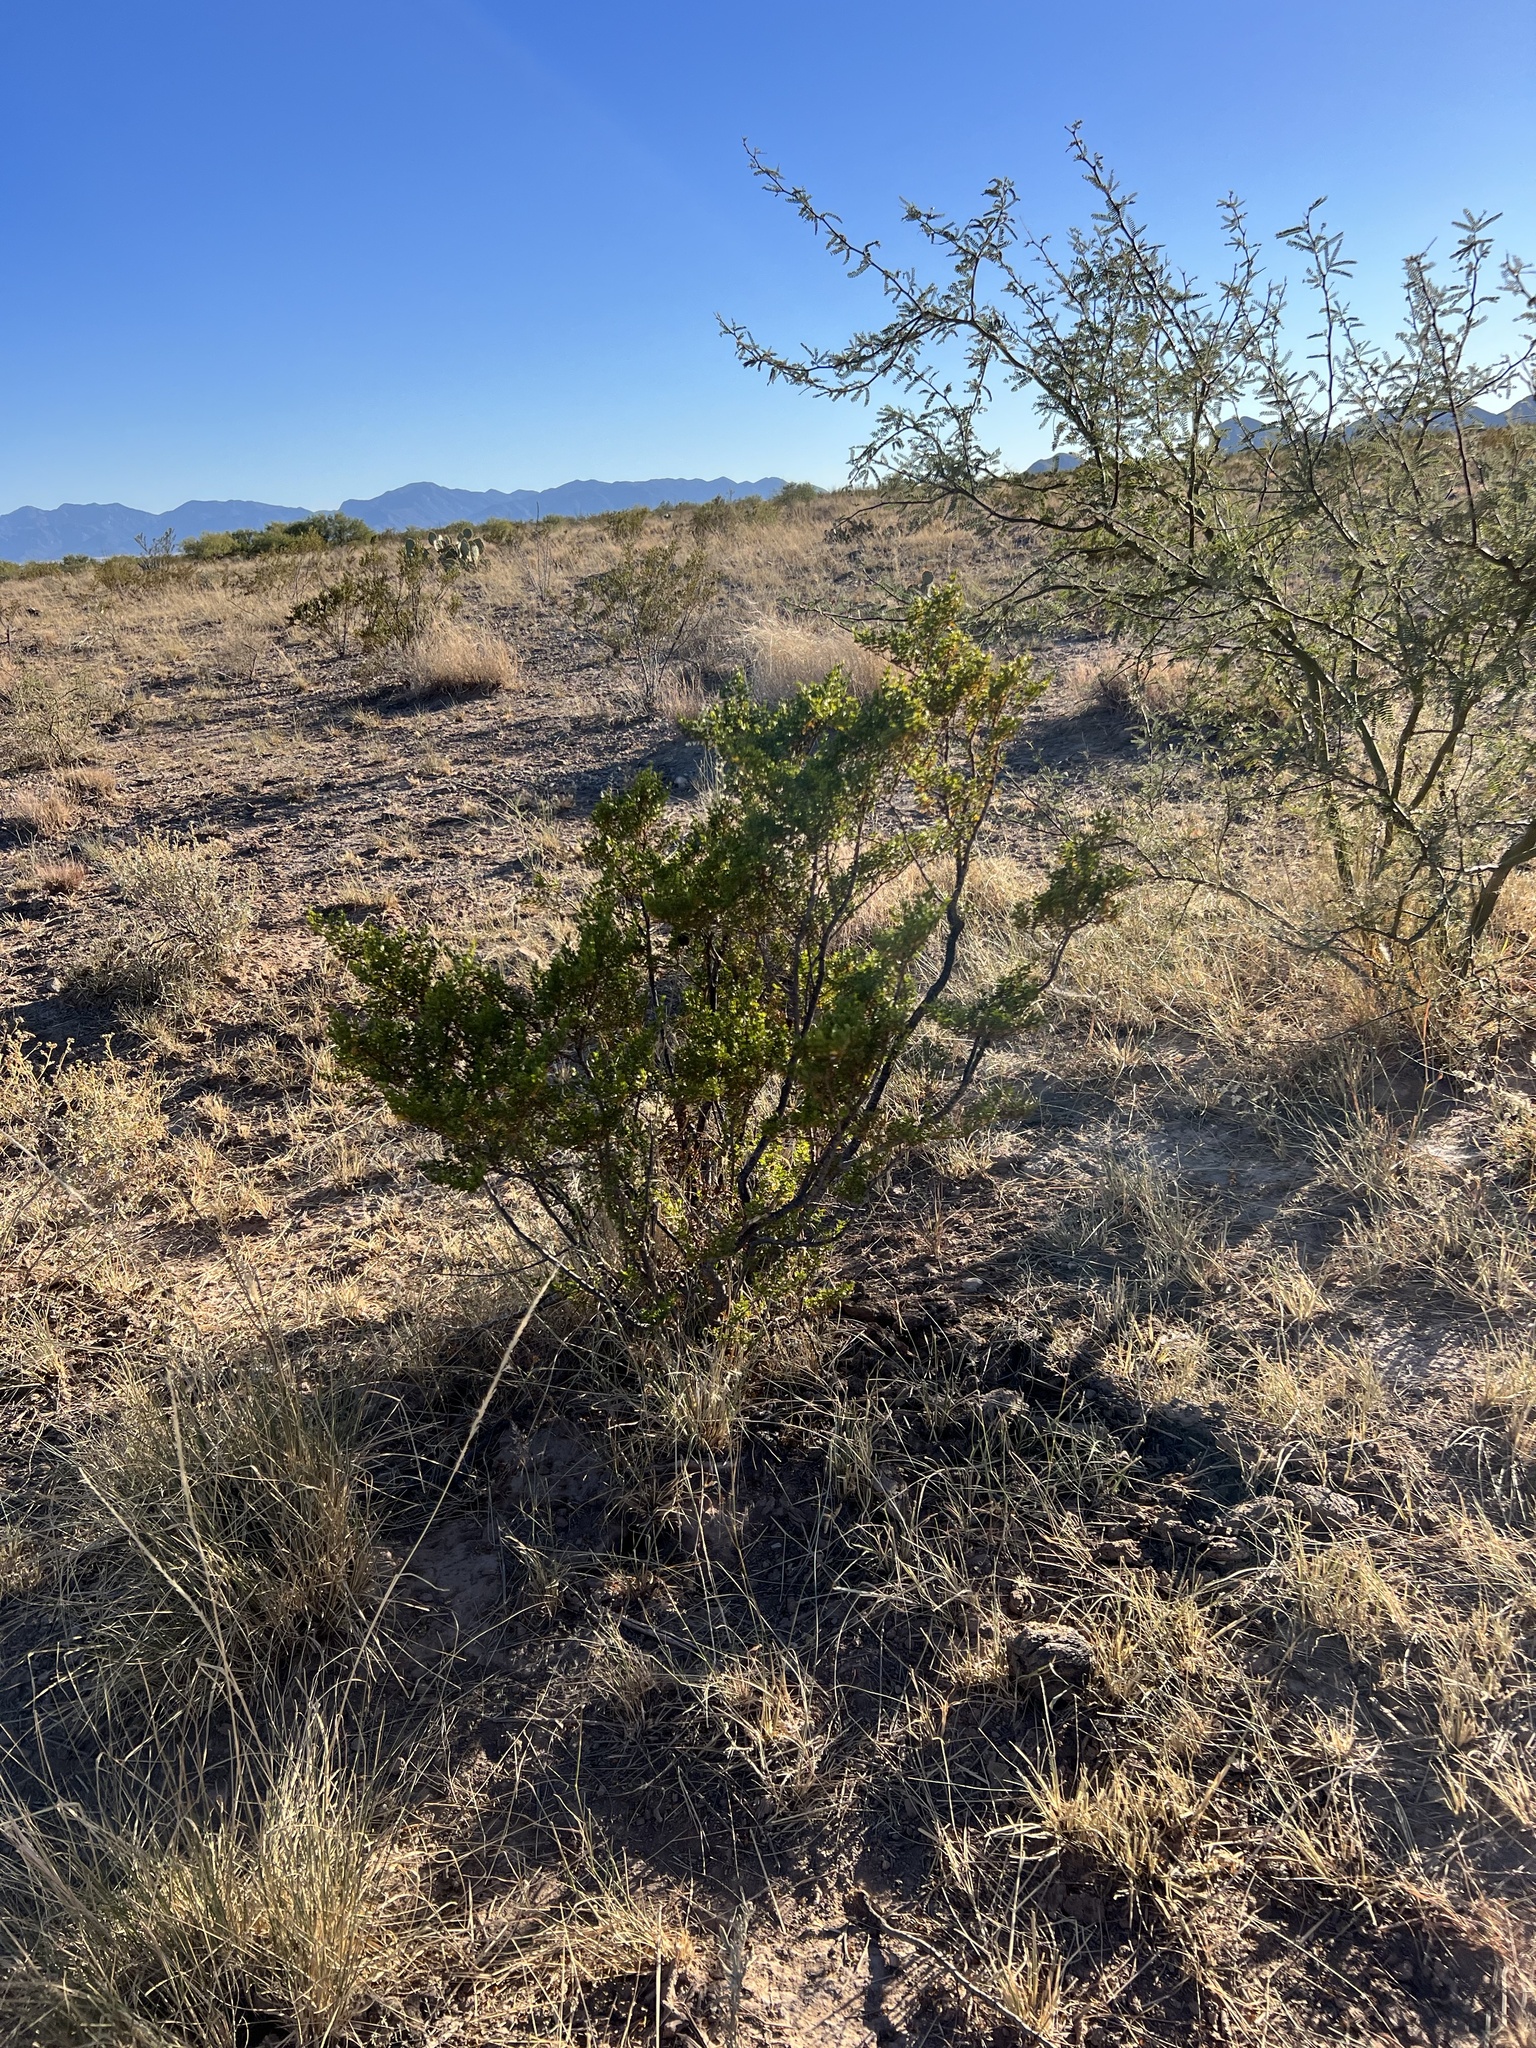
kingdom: Plantae
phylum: Tracheophyta
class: Magnoliopsida
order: Zygophyllales
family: Zygophyllaceae
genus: Larrea
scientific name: Larrea tridentata
